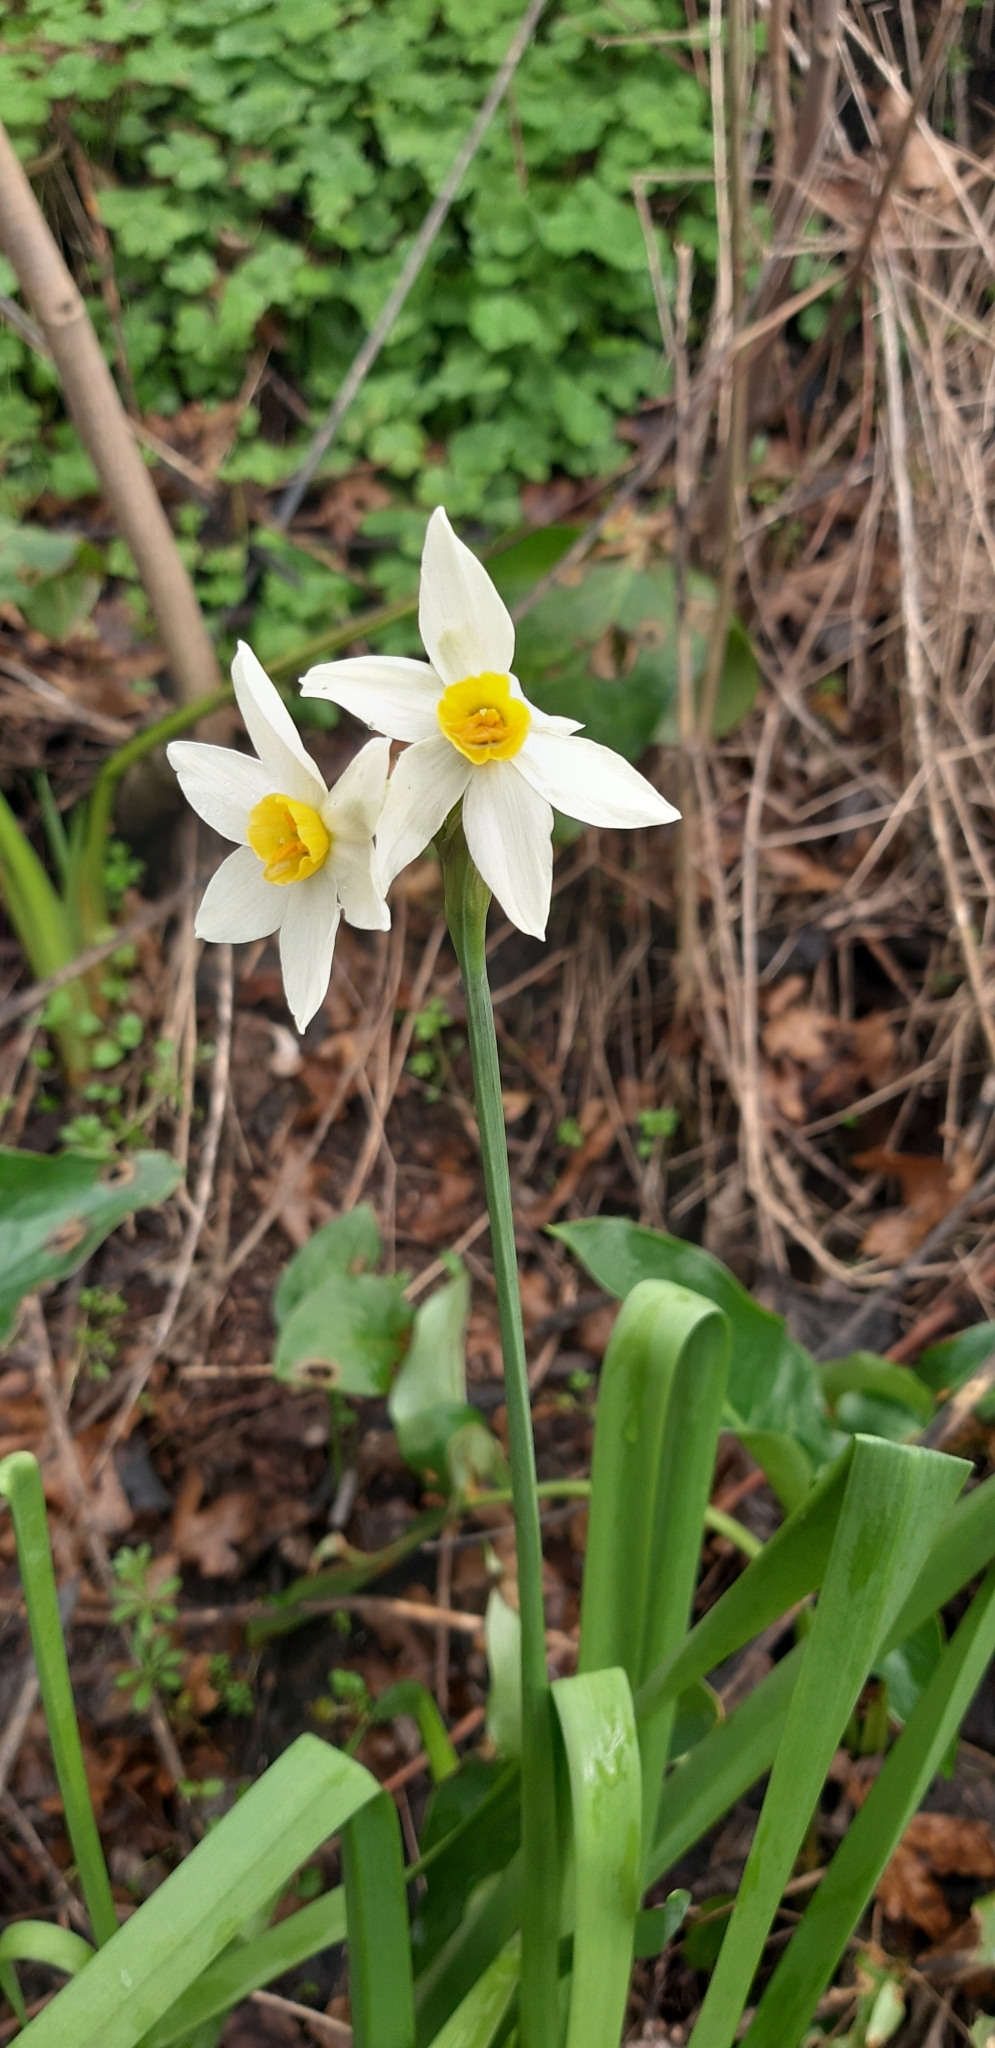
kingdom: Plantae
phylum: Tracheophyta
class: Liliopsida
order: Asparagales
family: Amaryllidaceae
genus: Narcissus
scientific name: Narcissus tazetta
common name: Bunch-flowered daffodil
